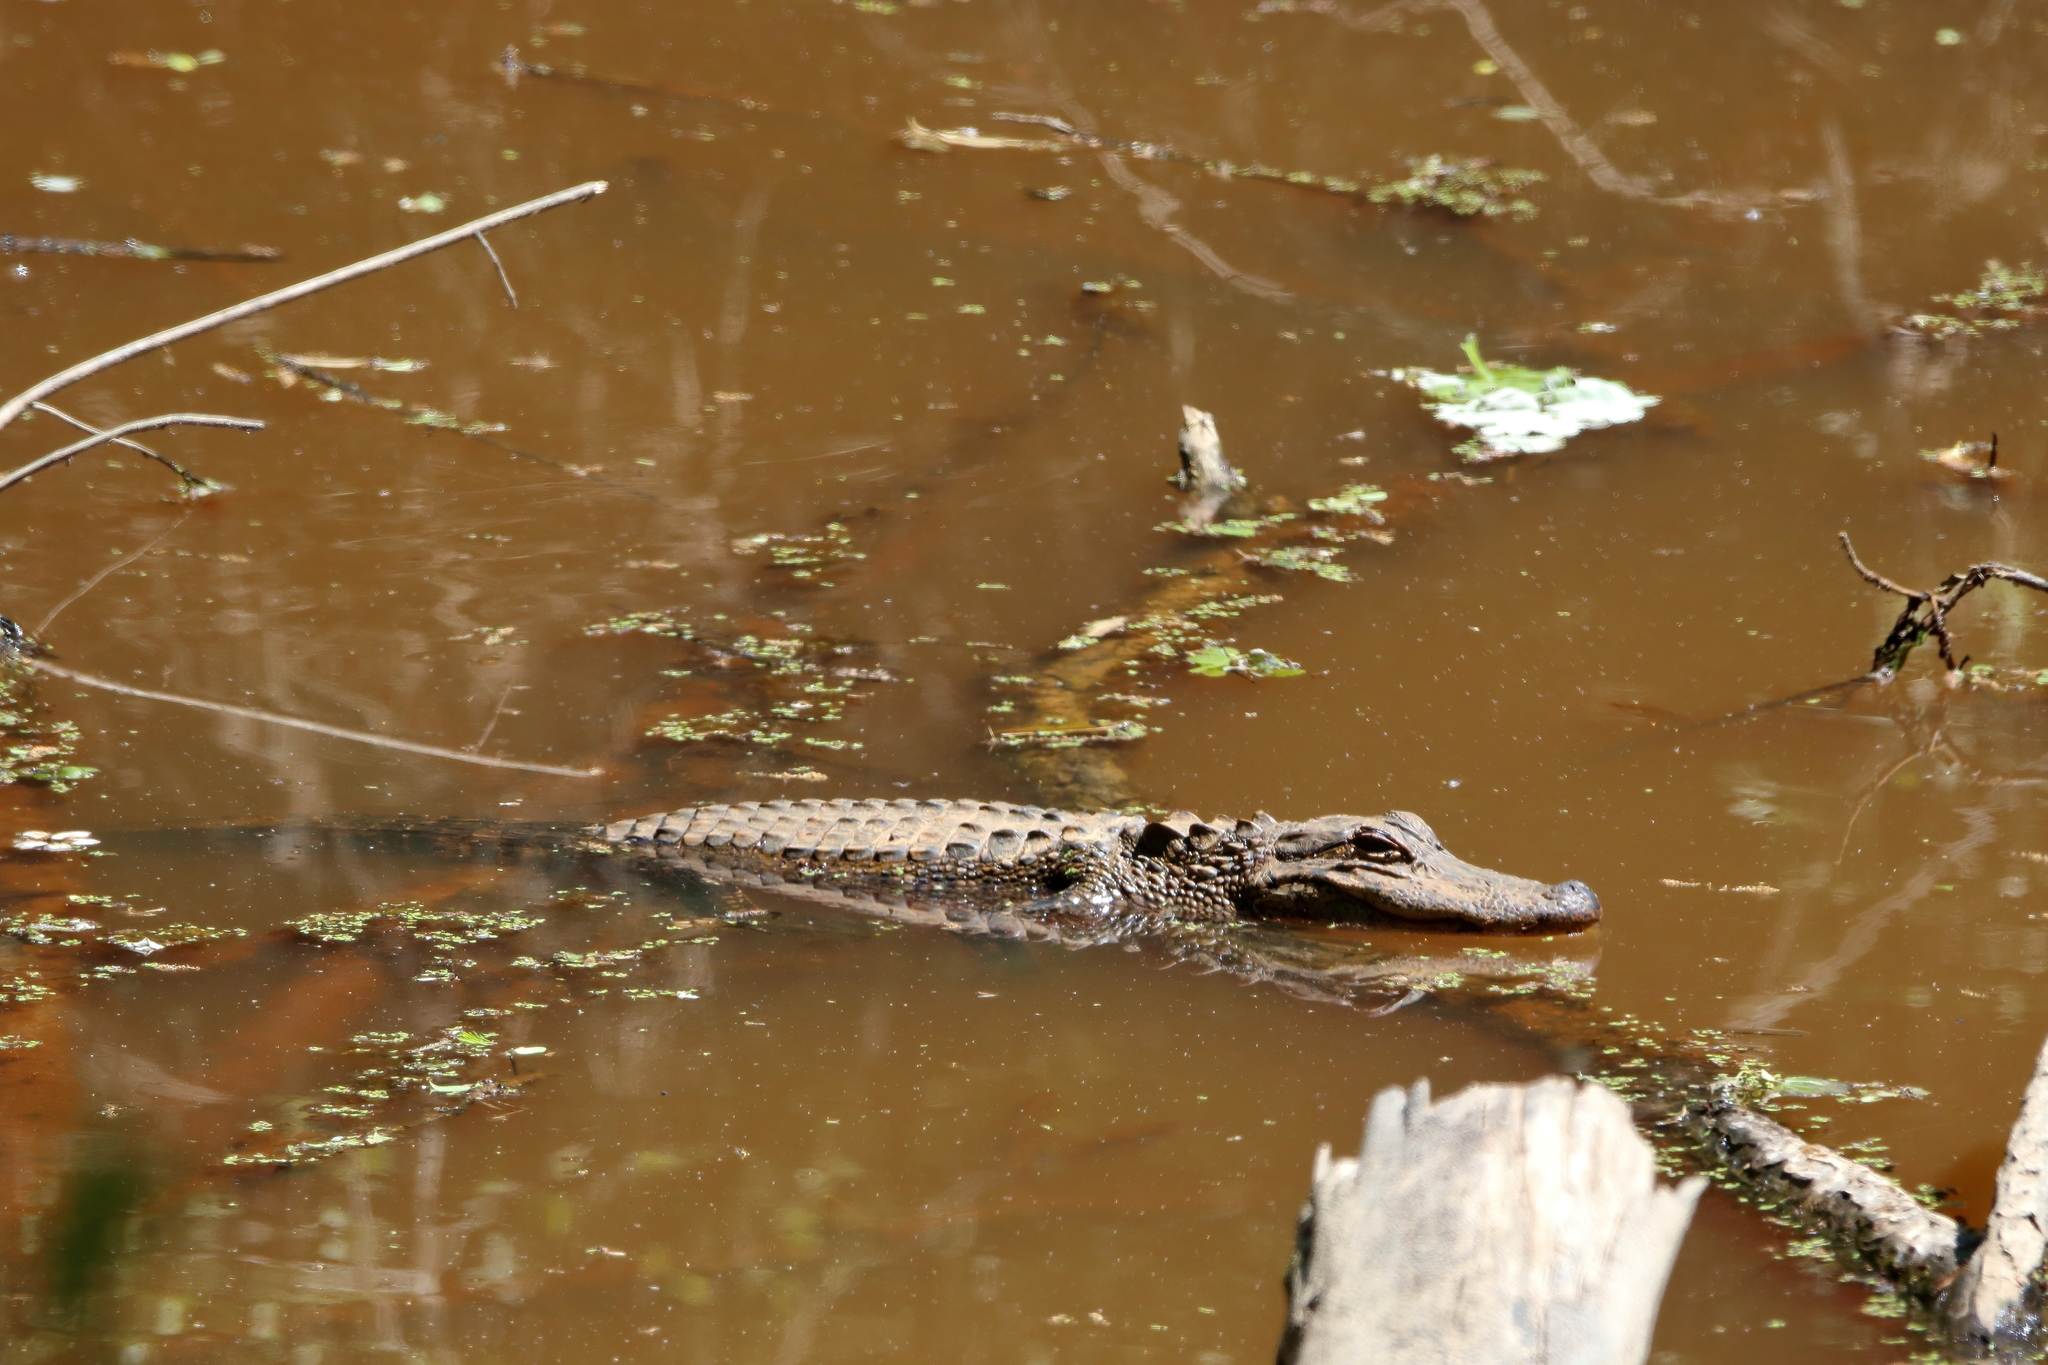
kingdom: Animalia
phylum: Chordata
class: Crocodylia
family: Alligatoridae
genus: Alligator
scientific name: Alligator mississippiensis
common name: American alligator
